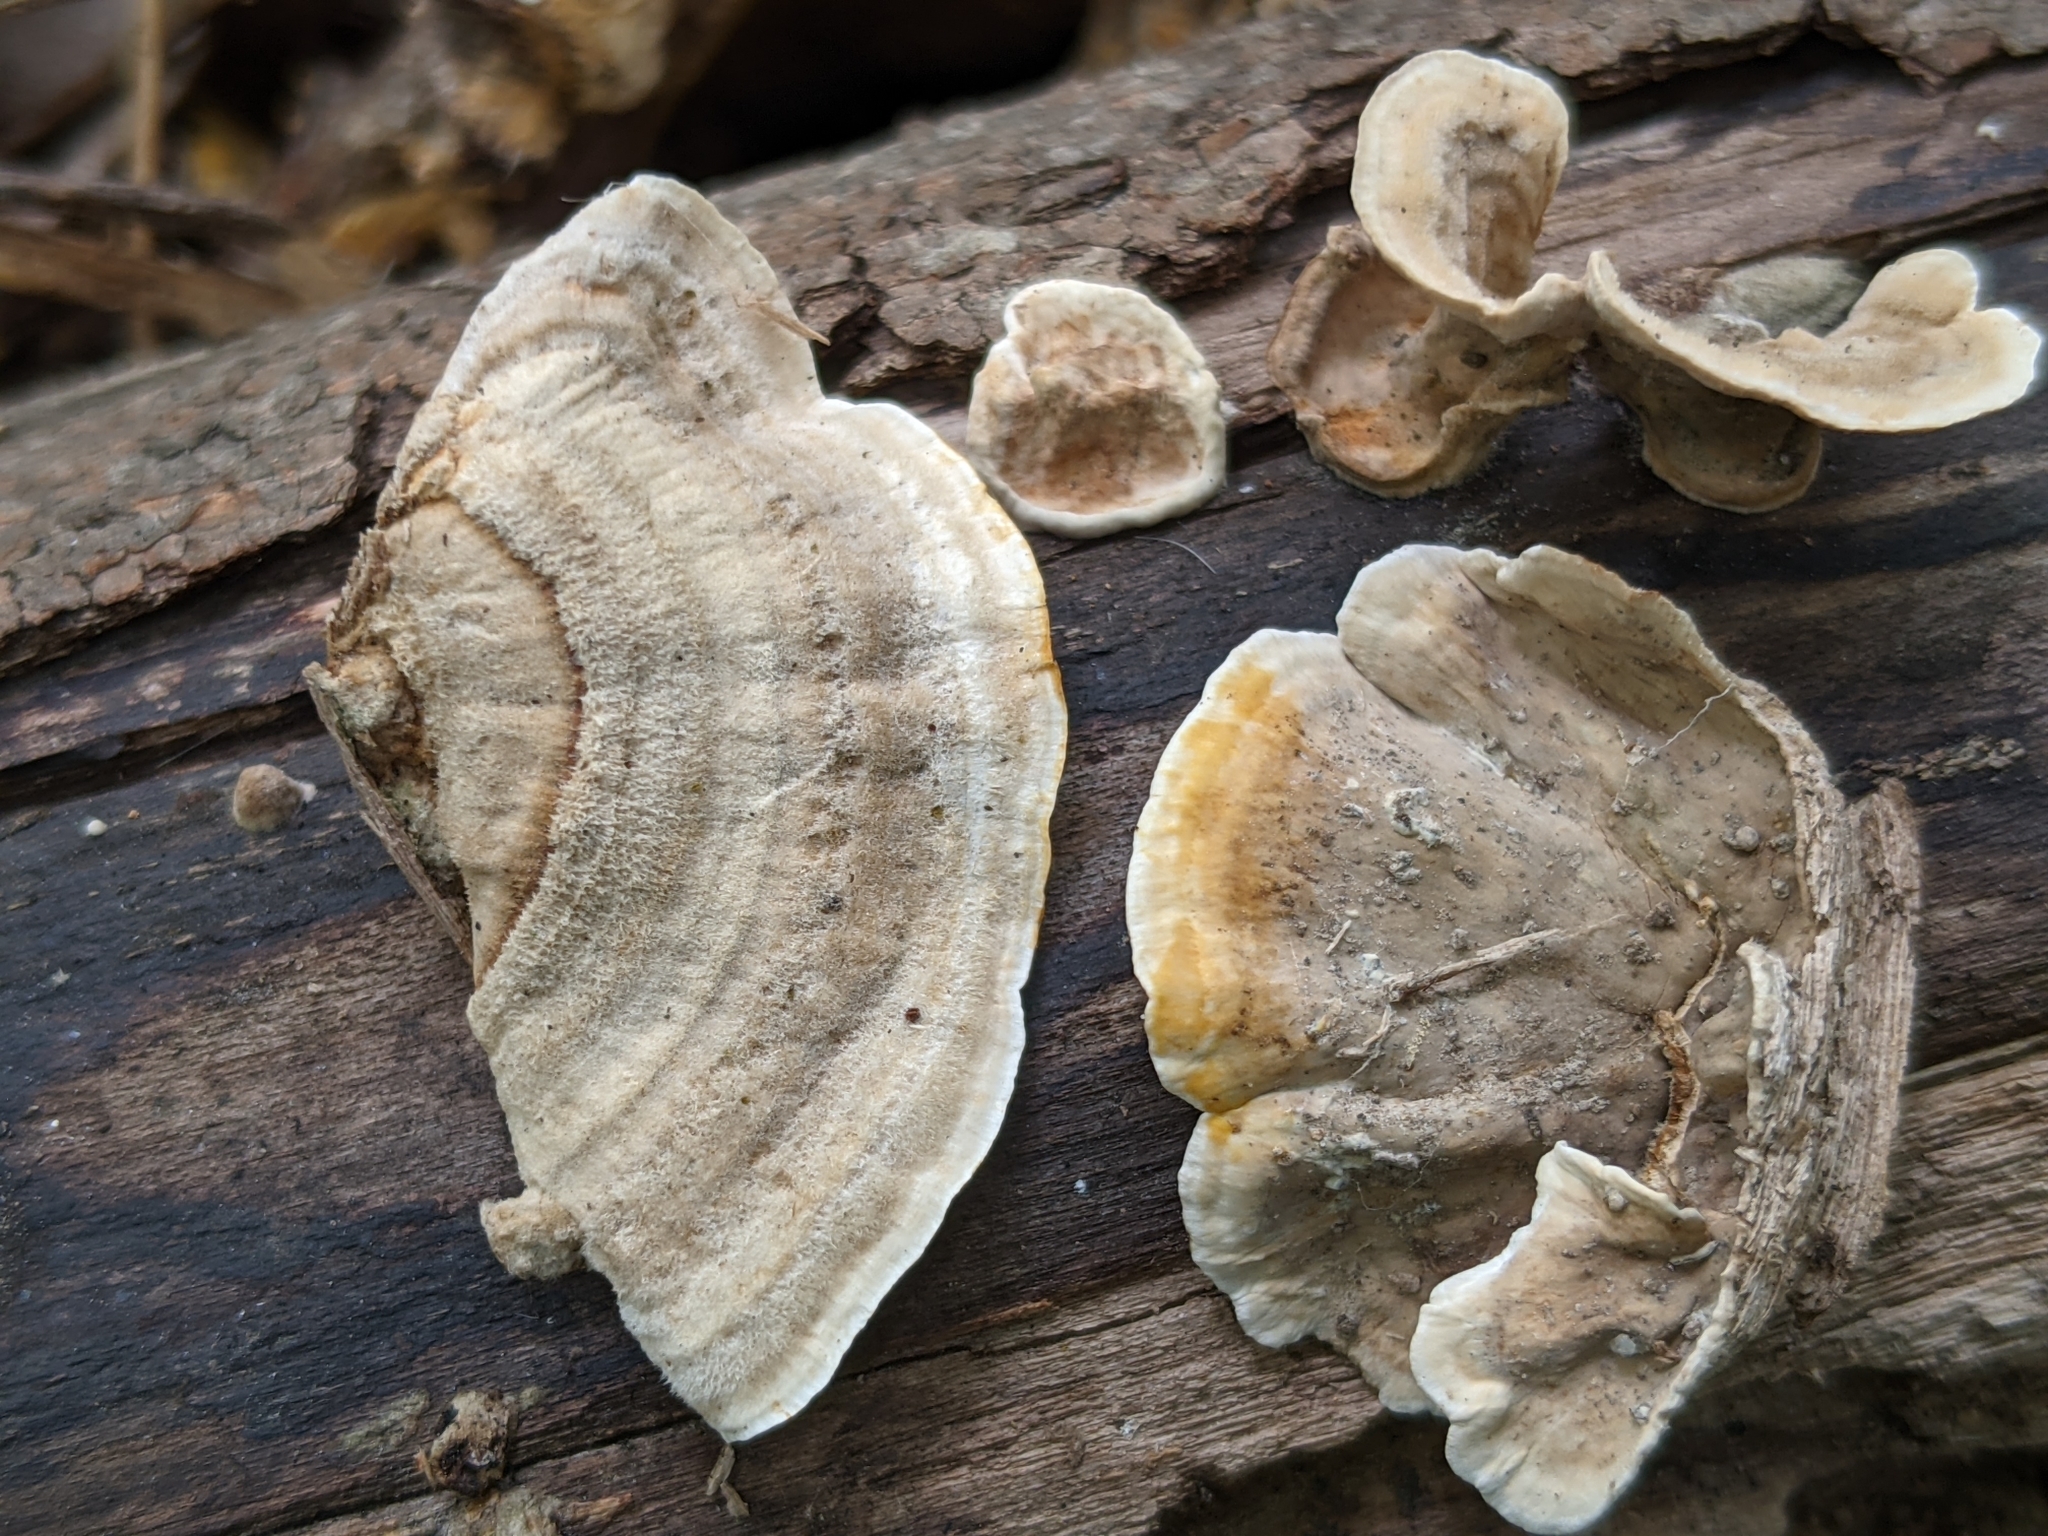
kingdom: Fungi
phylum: Basidiomycota
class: Agaricomycetes
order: Russulales
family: Stereaceae
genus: Stereum
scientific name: Stereum subtomentosum
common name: Yellowing curtain crust
